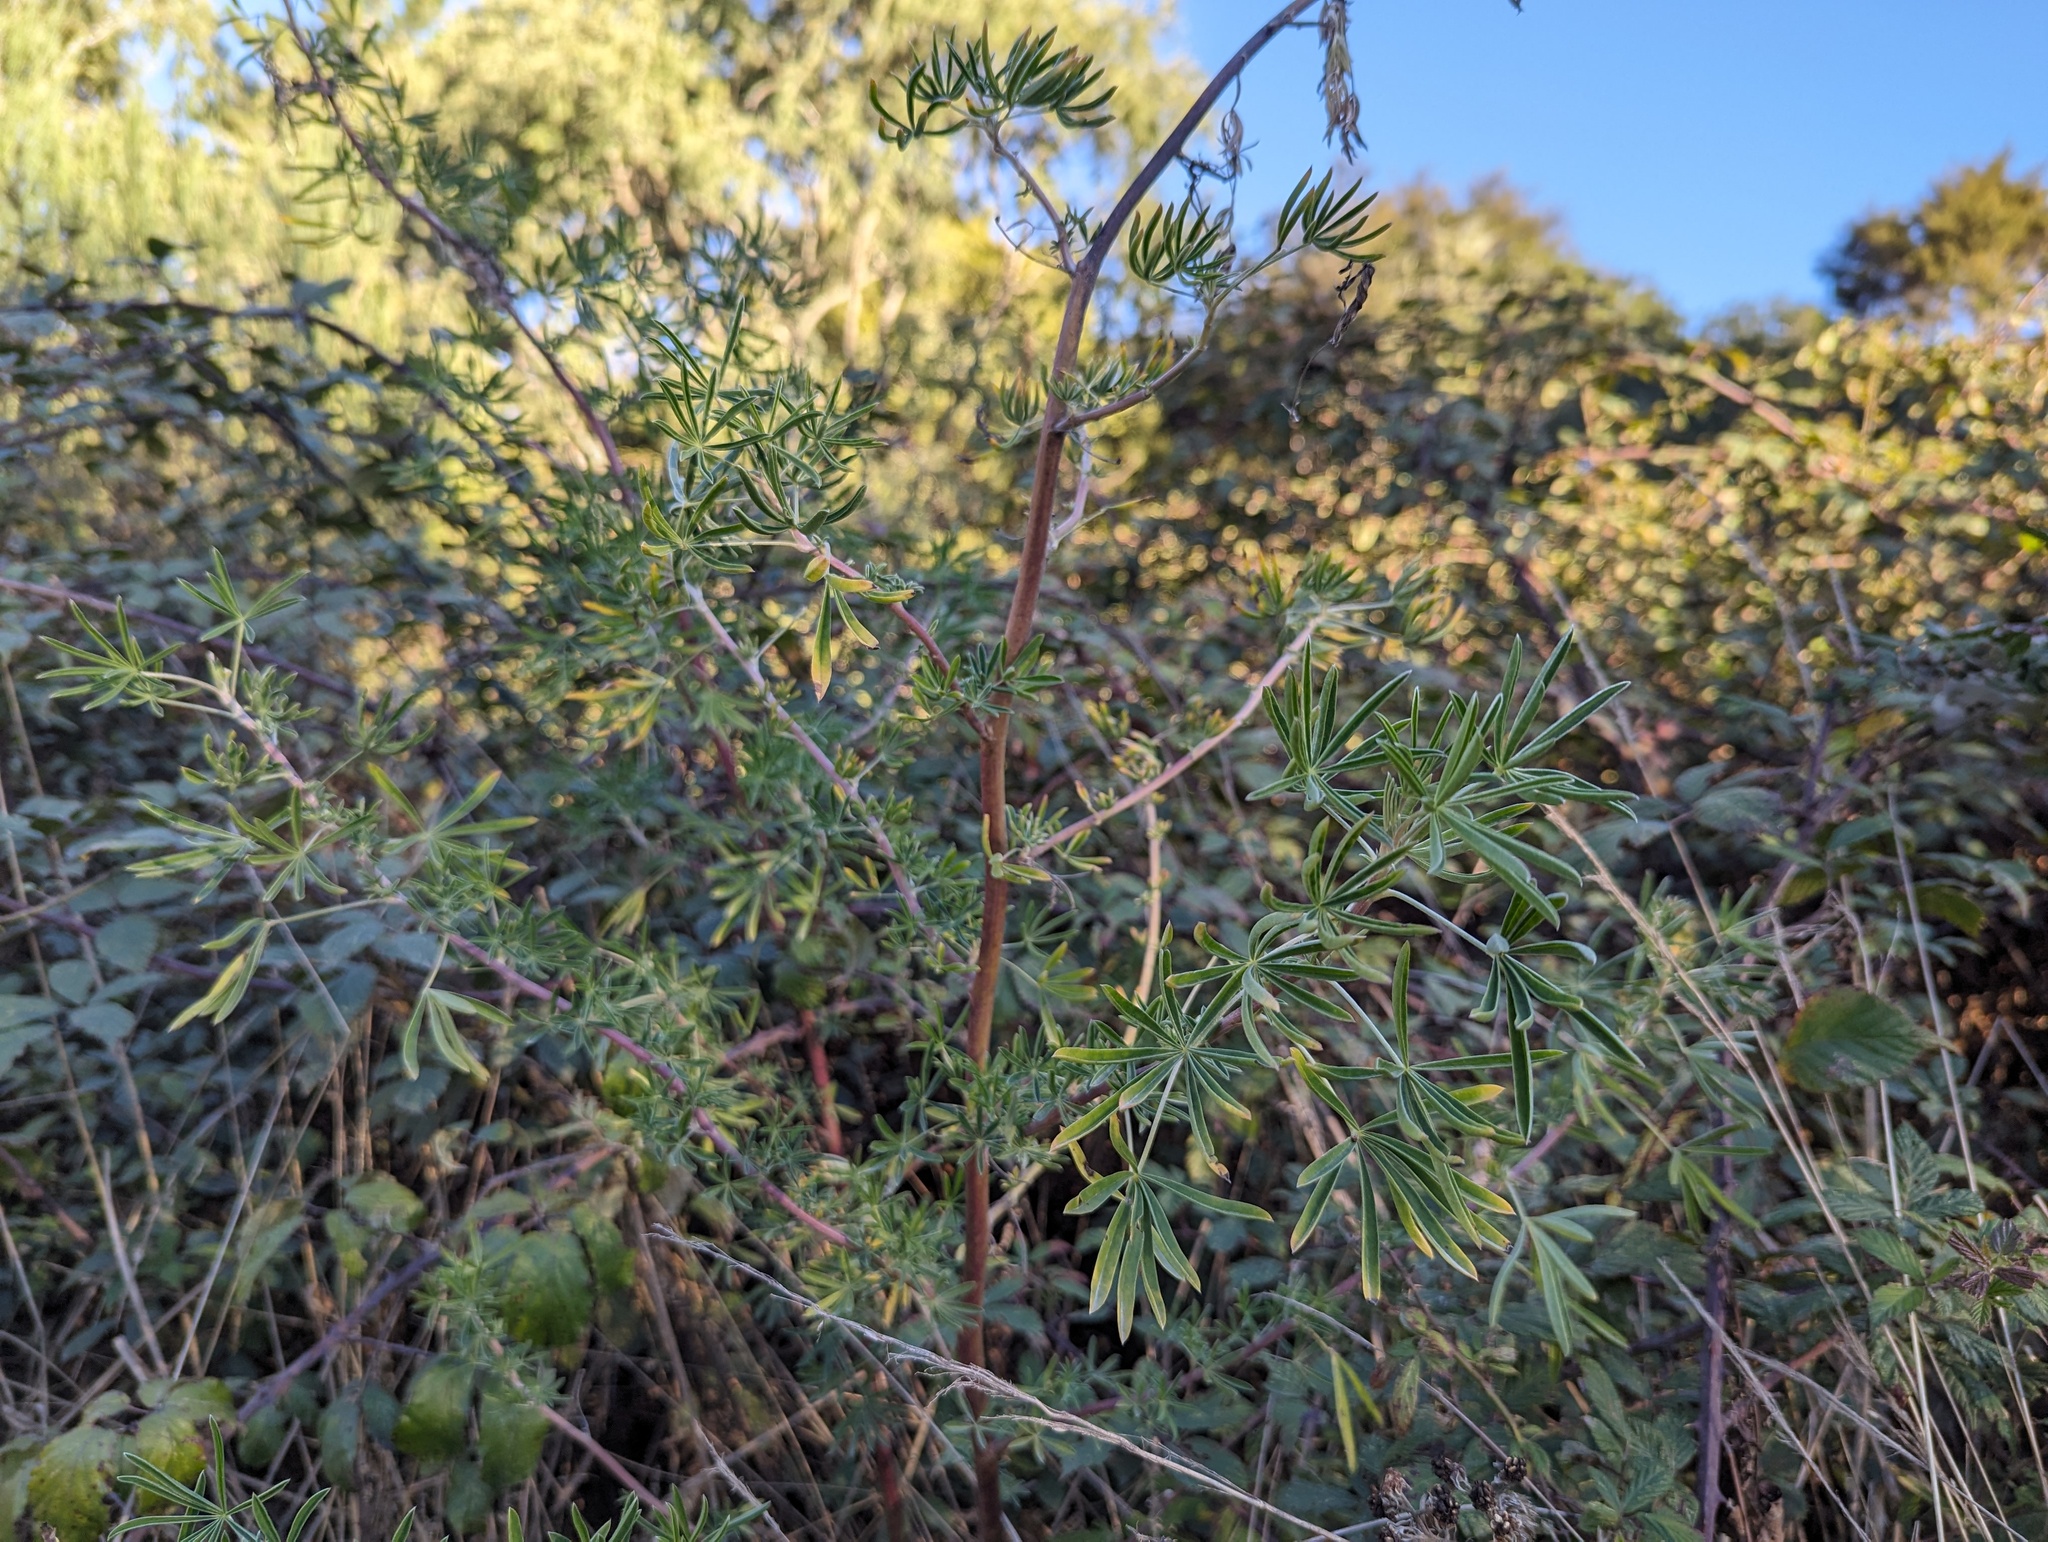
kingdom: Plantae
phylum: Tracheophyta
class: Magnoliopsida
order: Fabales
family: Fabaceae
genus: Lupinus
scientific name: Lupinus arboreus
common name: Yellow bush lupine
